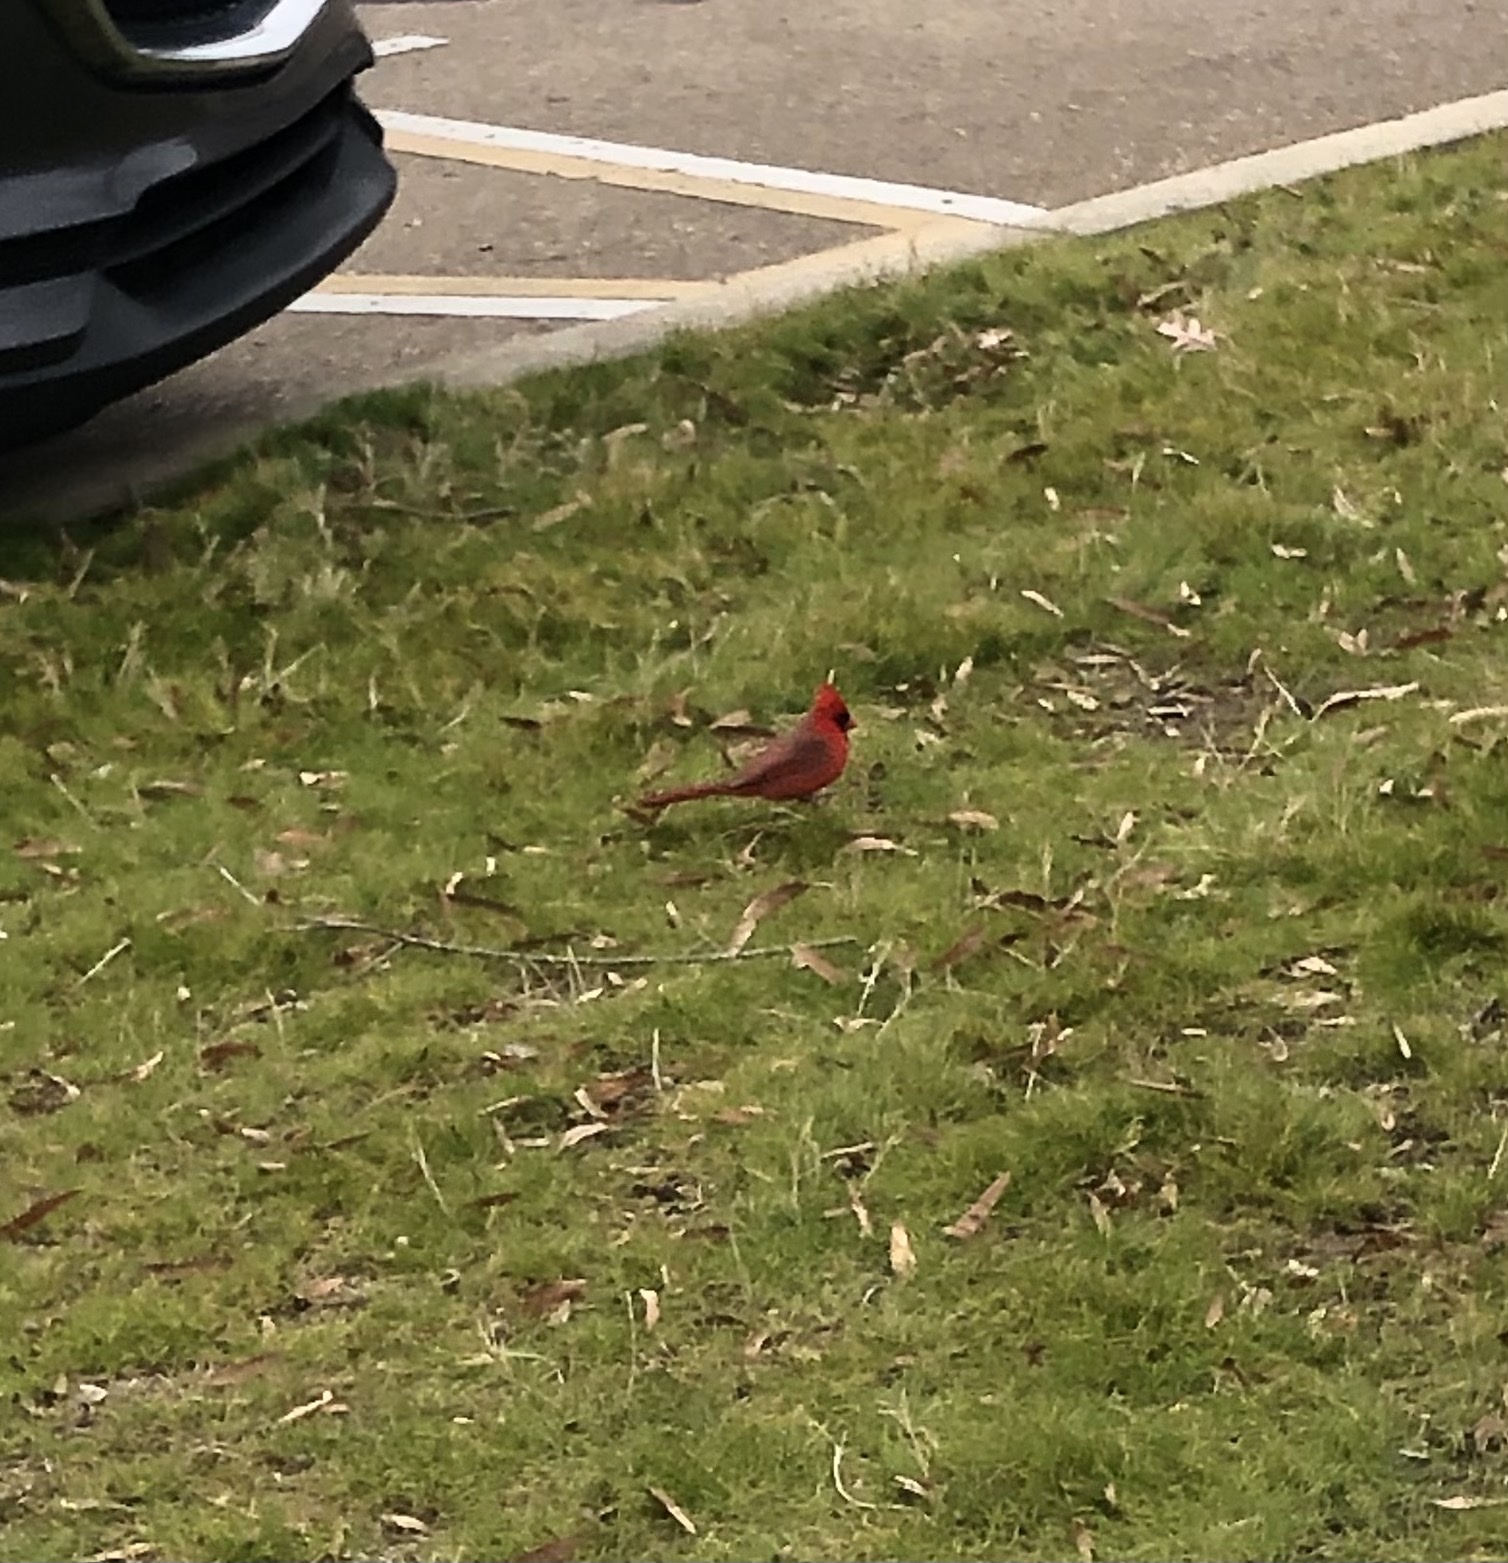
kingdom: Animalia
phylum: Chordata
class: Aves
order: Passeriformes
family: Cardinalidae
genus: Cardinalis
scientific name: Cardinalis cardinalis
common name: Northern cardinal
